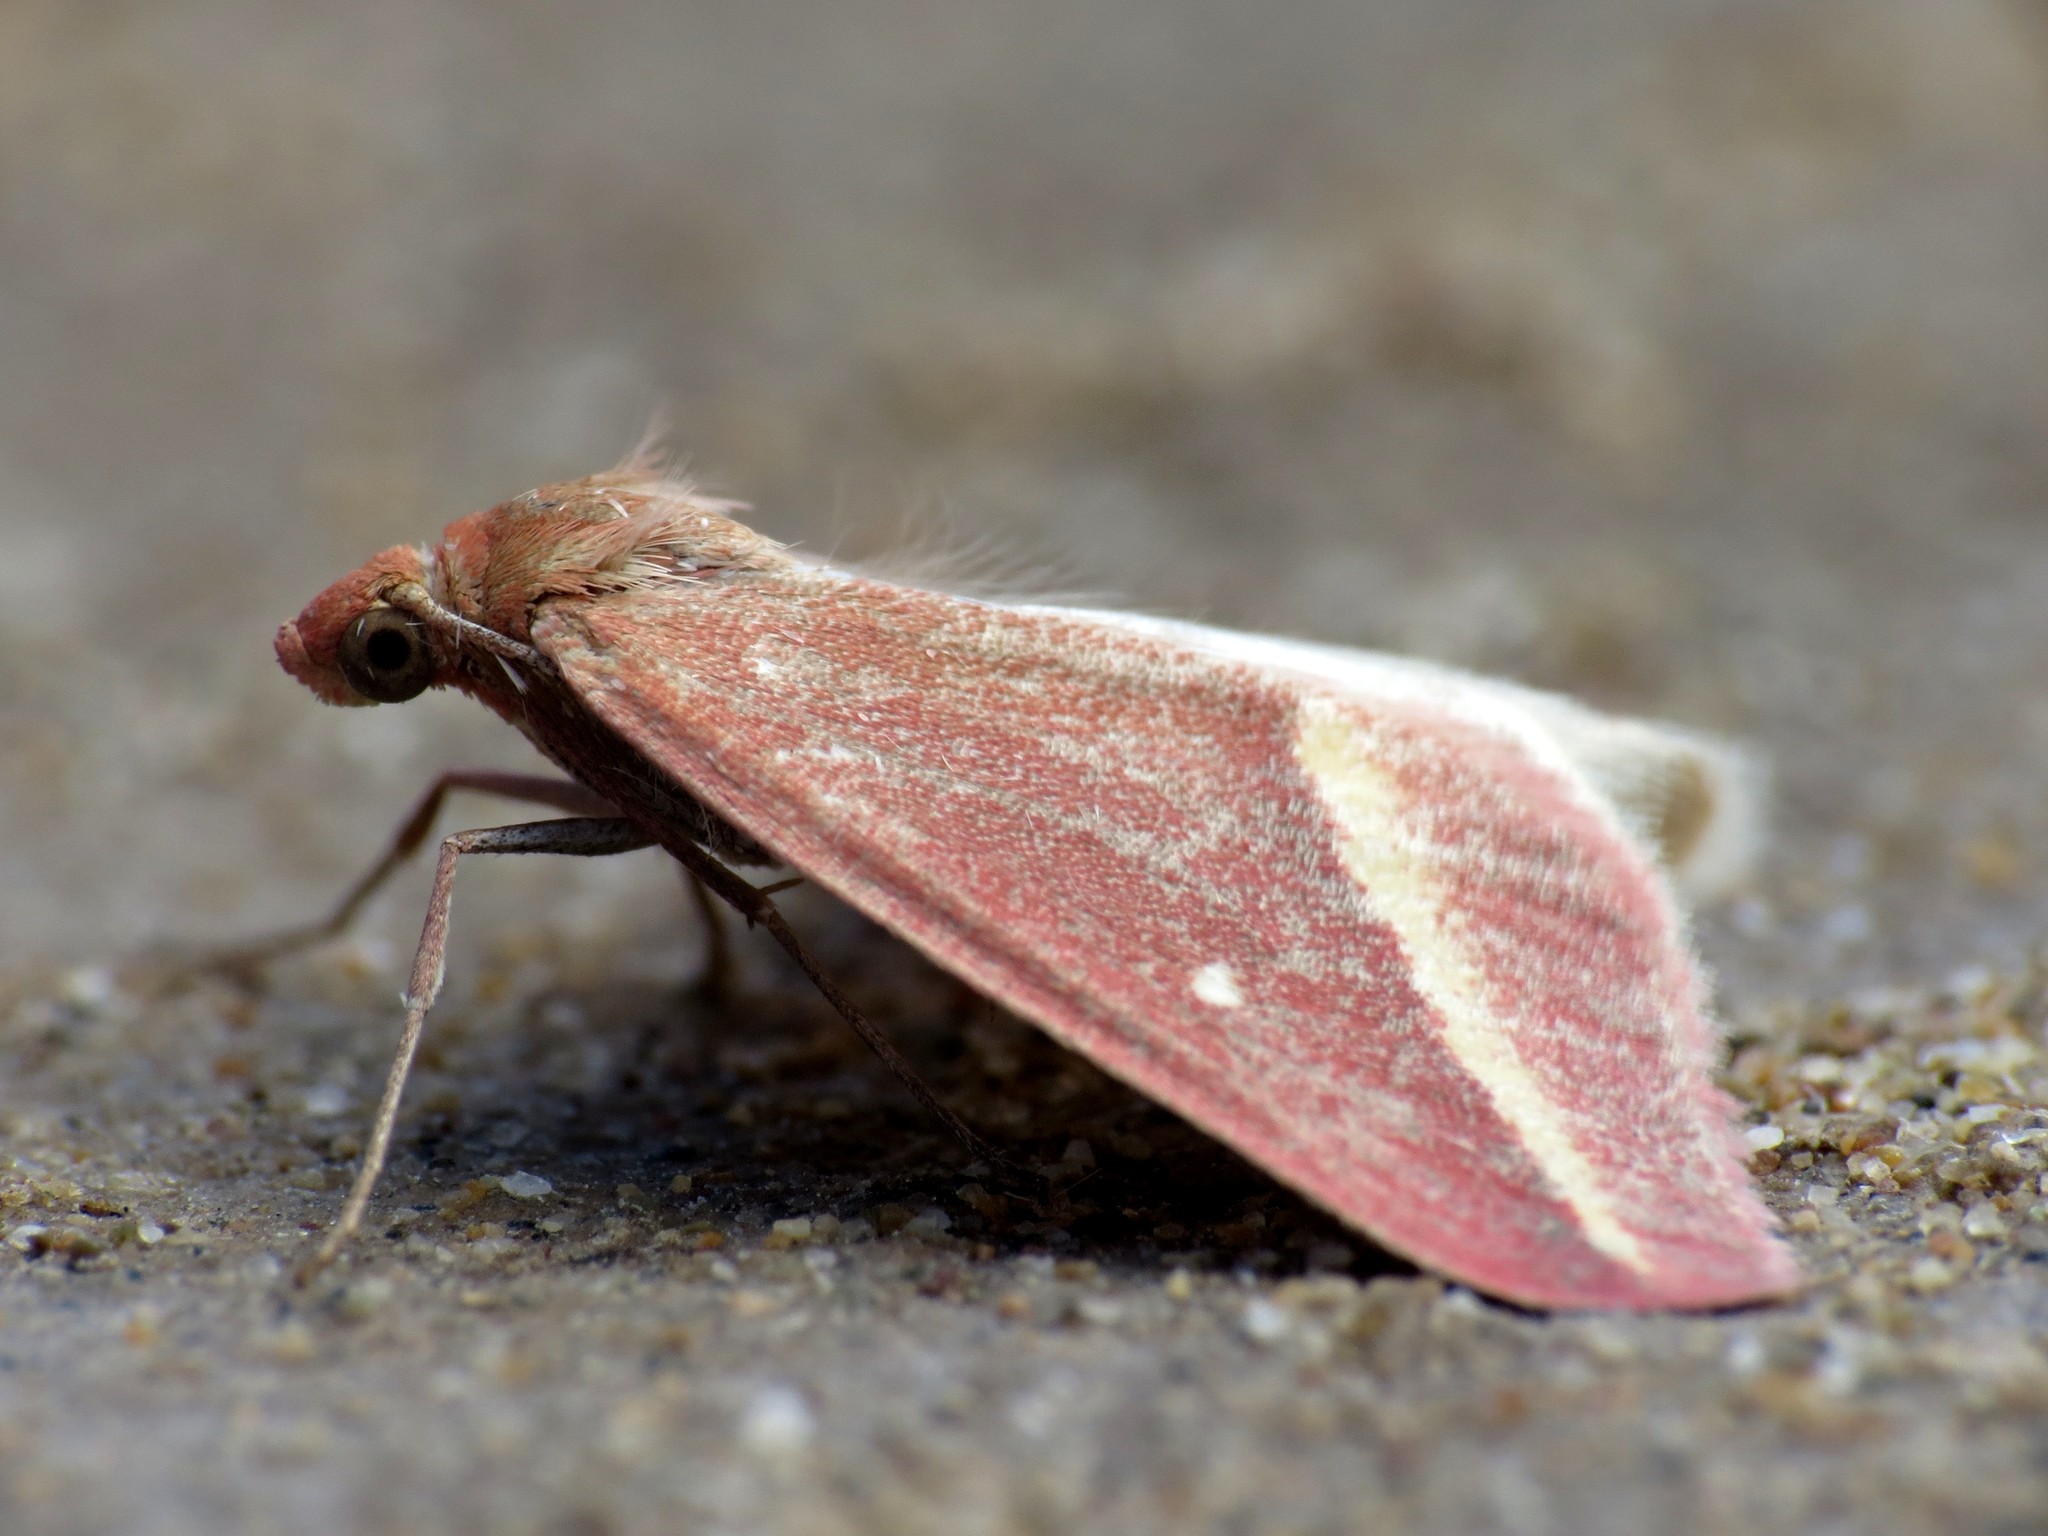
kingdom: Animalia
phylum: Arthropoda
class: Insecta
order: Lepidoptera
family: Geometridae
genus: Casilda
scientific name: Casilda consecraria
